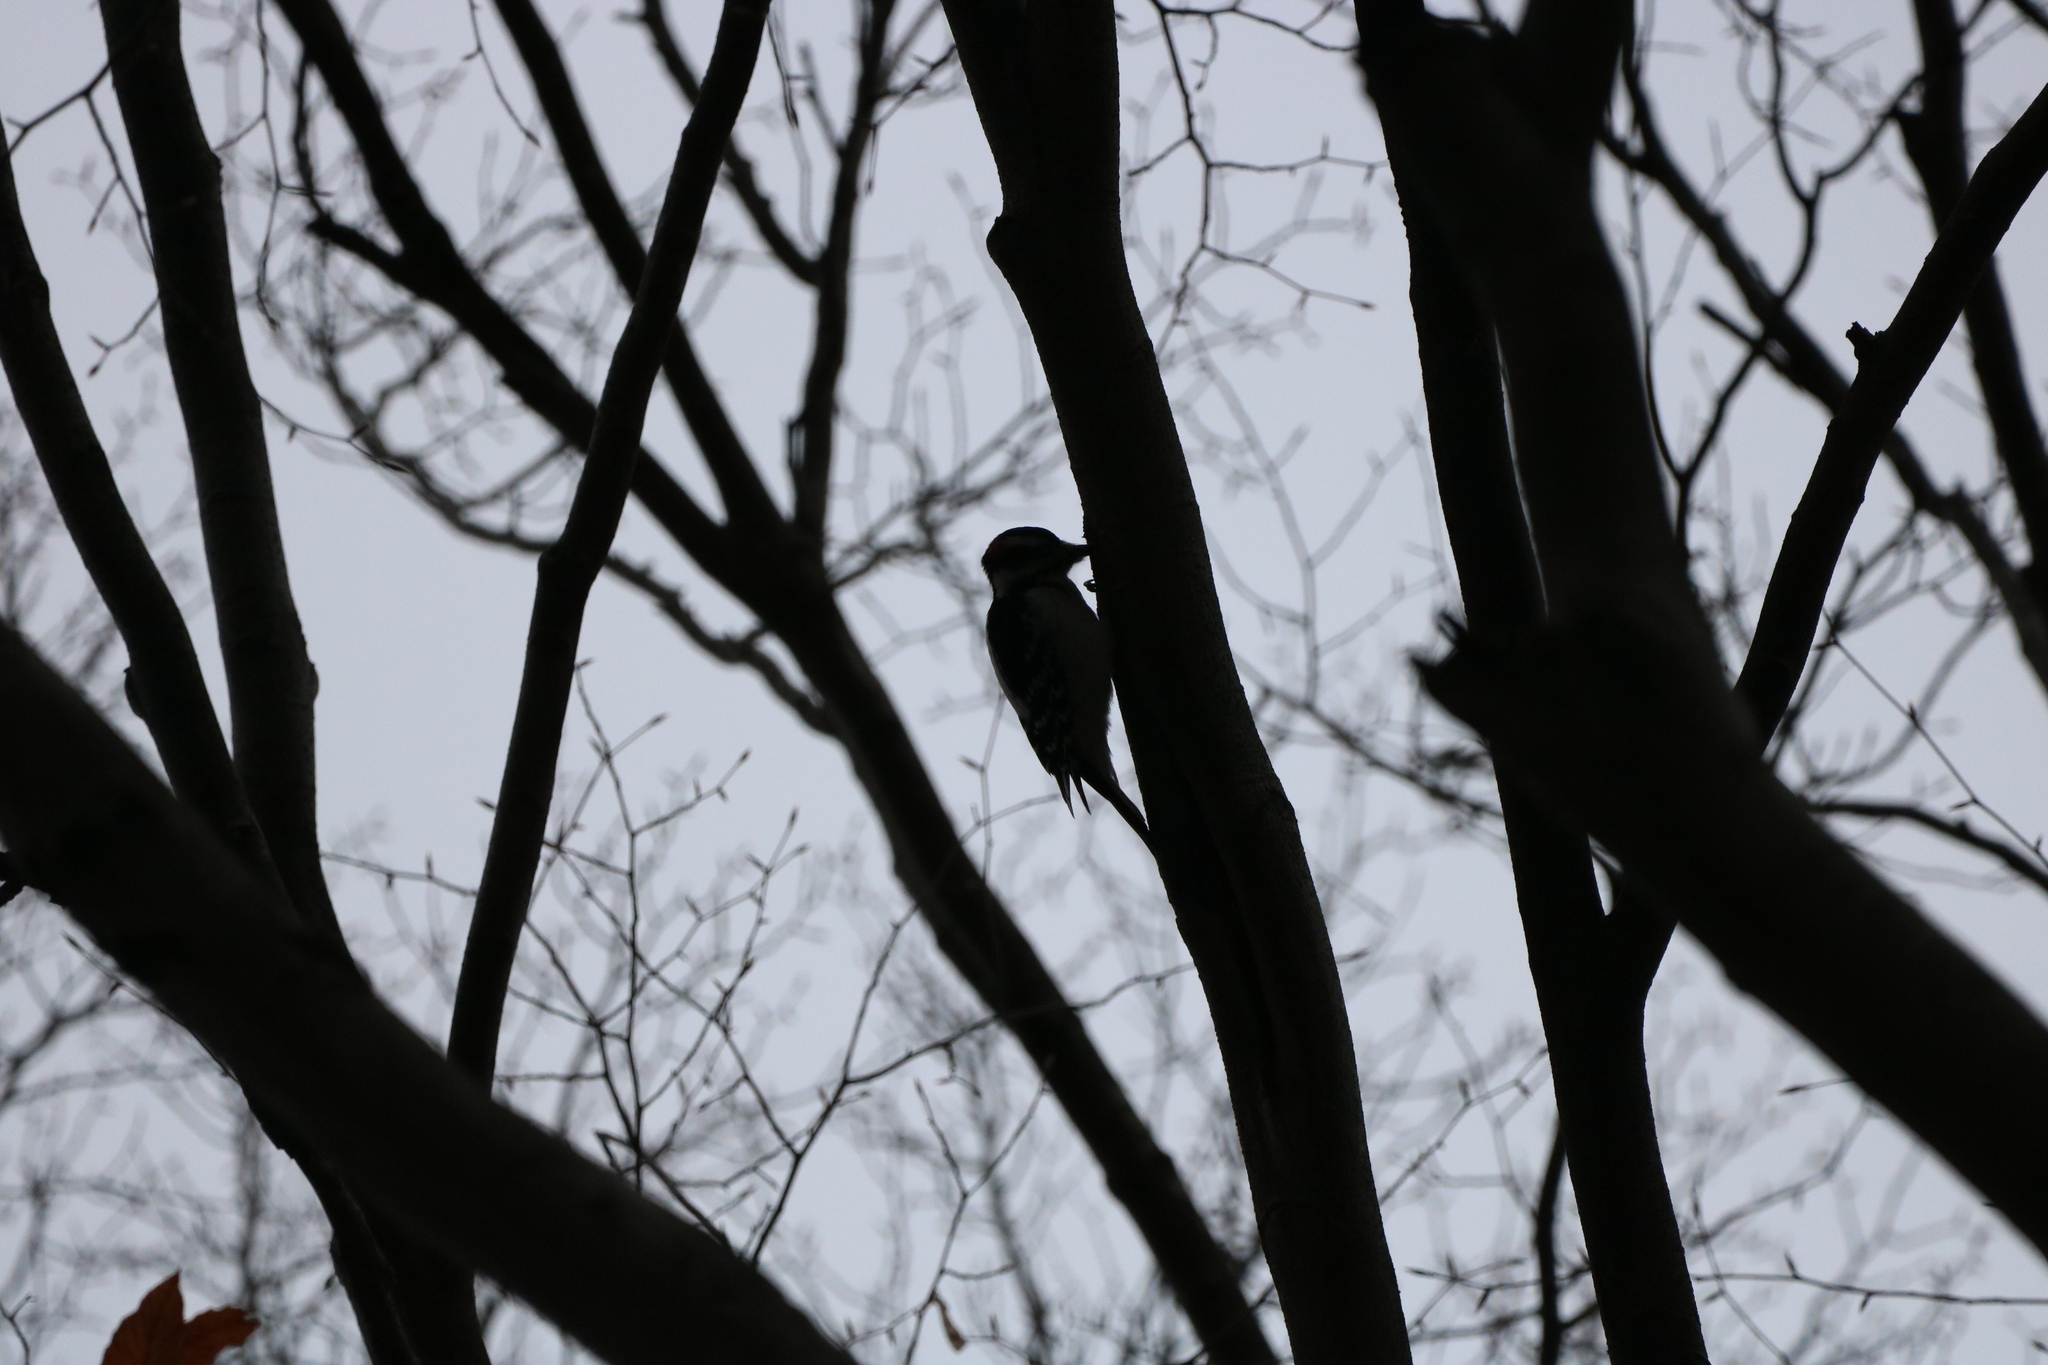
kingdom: Animalia
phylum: Chordata
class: Aves
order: Piciformes
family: Picidae
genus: Leuconotopicus
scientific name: Leuconotopicus villosus
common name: Hairy woodpecker
